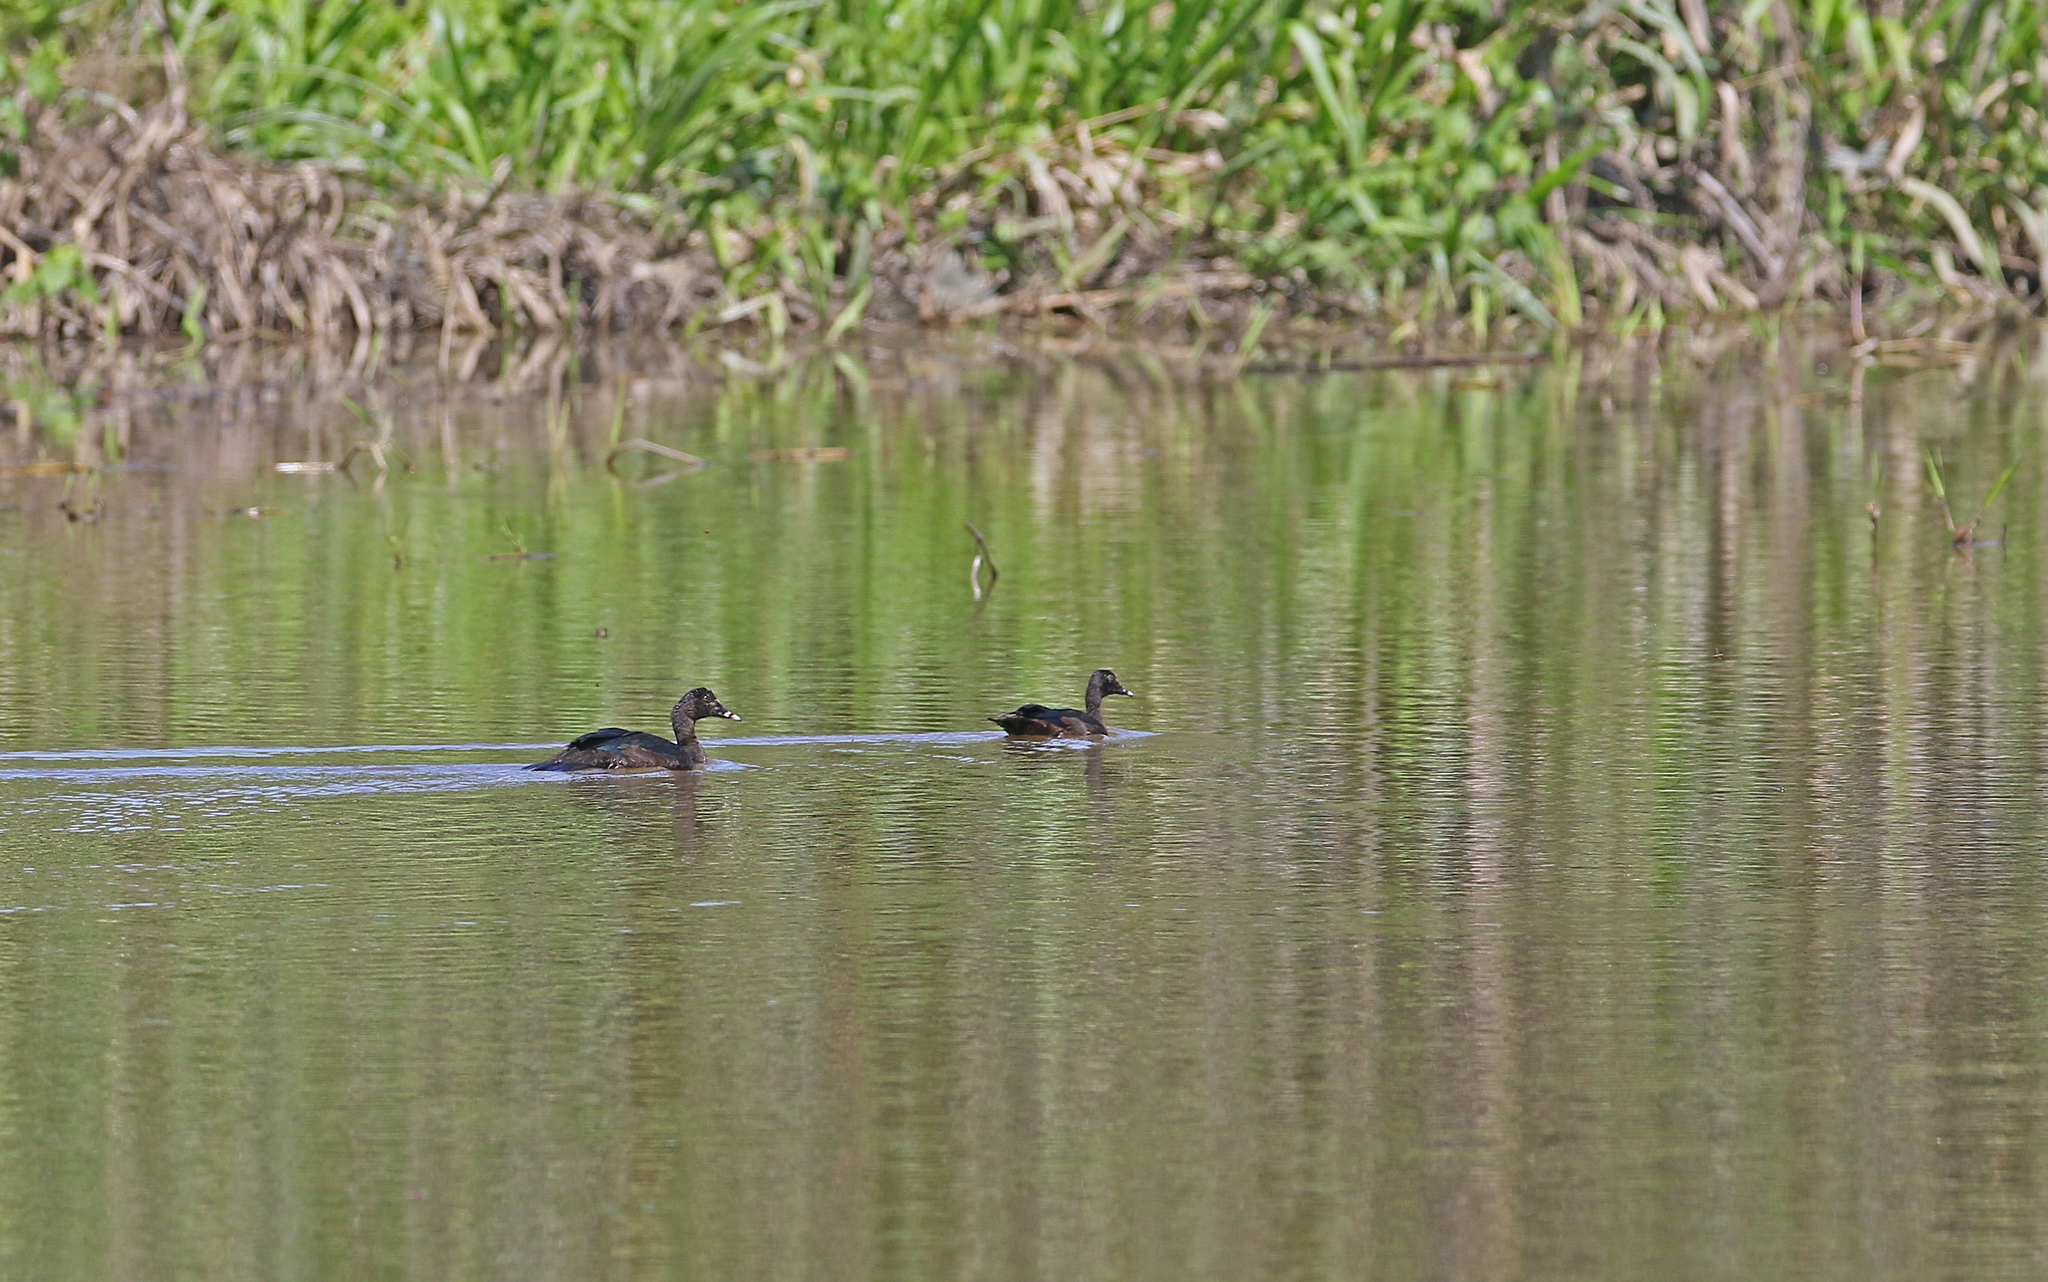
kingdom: Animalia
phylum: Chordata
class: Aves
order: Anseriformes
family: Anatidae
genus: Cairina
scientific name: Cairina moschata
